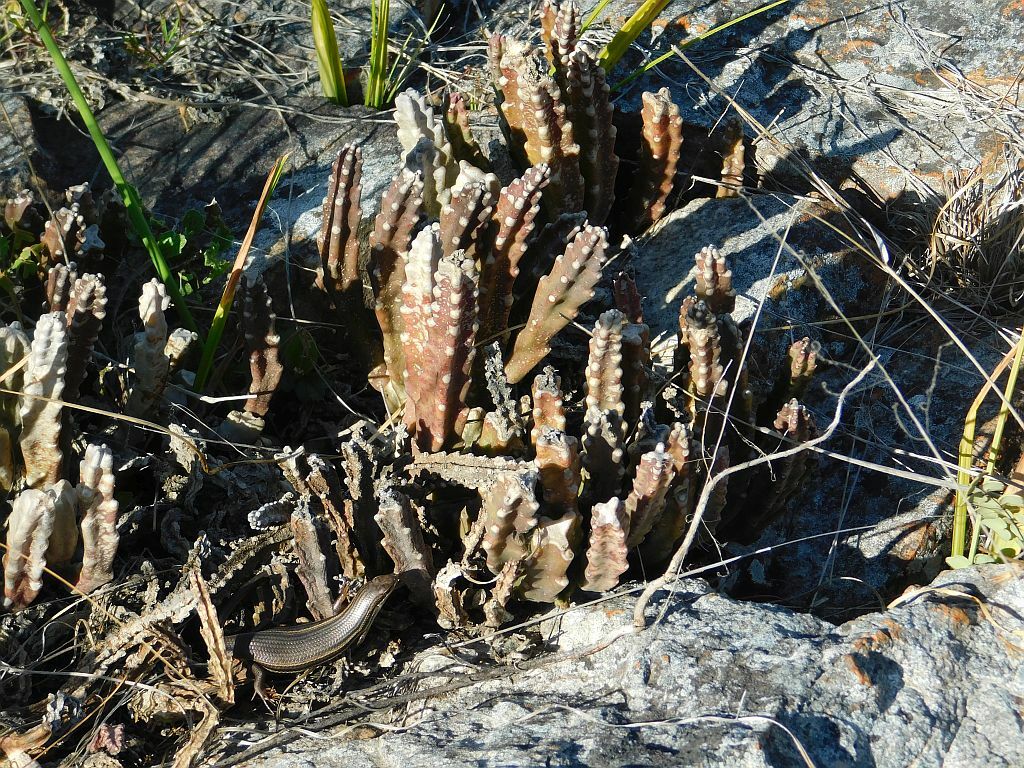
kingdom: Plantae
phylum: Tracheophyta
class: Magnoliopsida
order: Gentianales
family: Apocynaceae
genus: Ceropegia
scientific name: Ceropegia pulvinata
